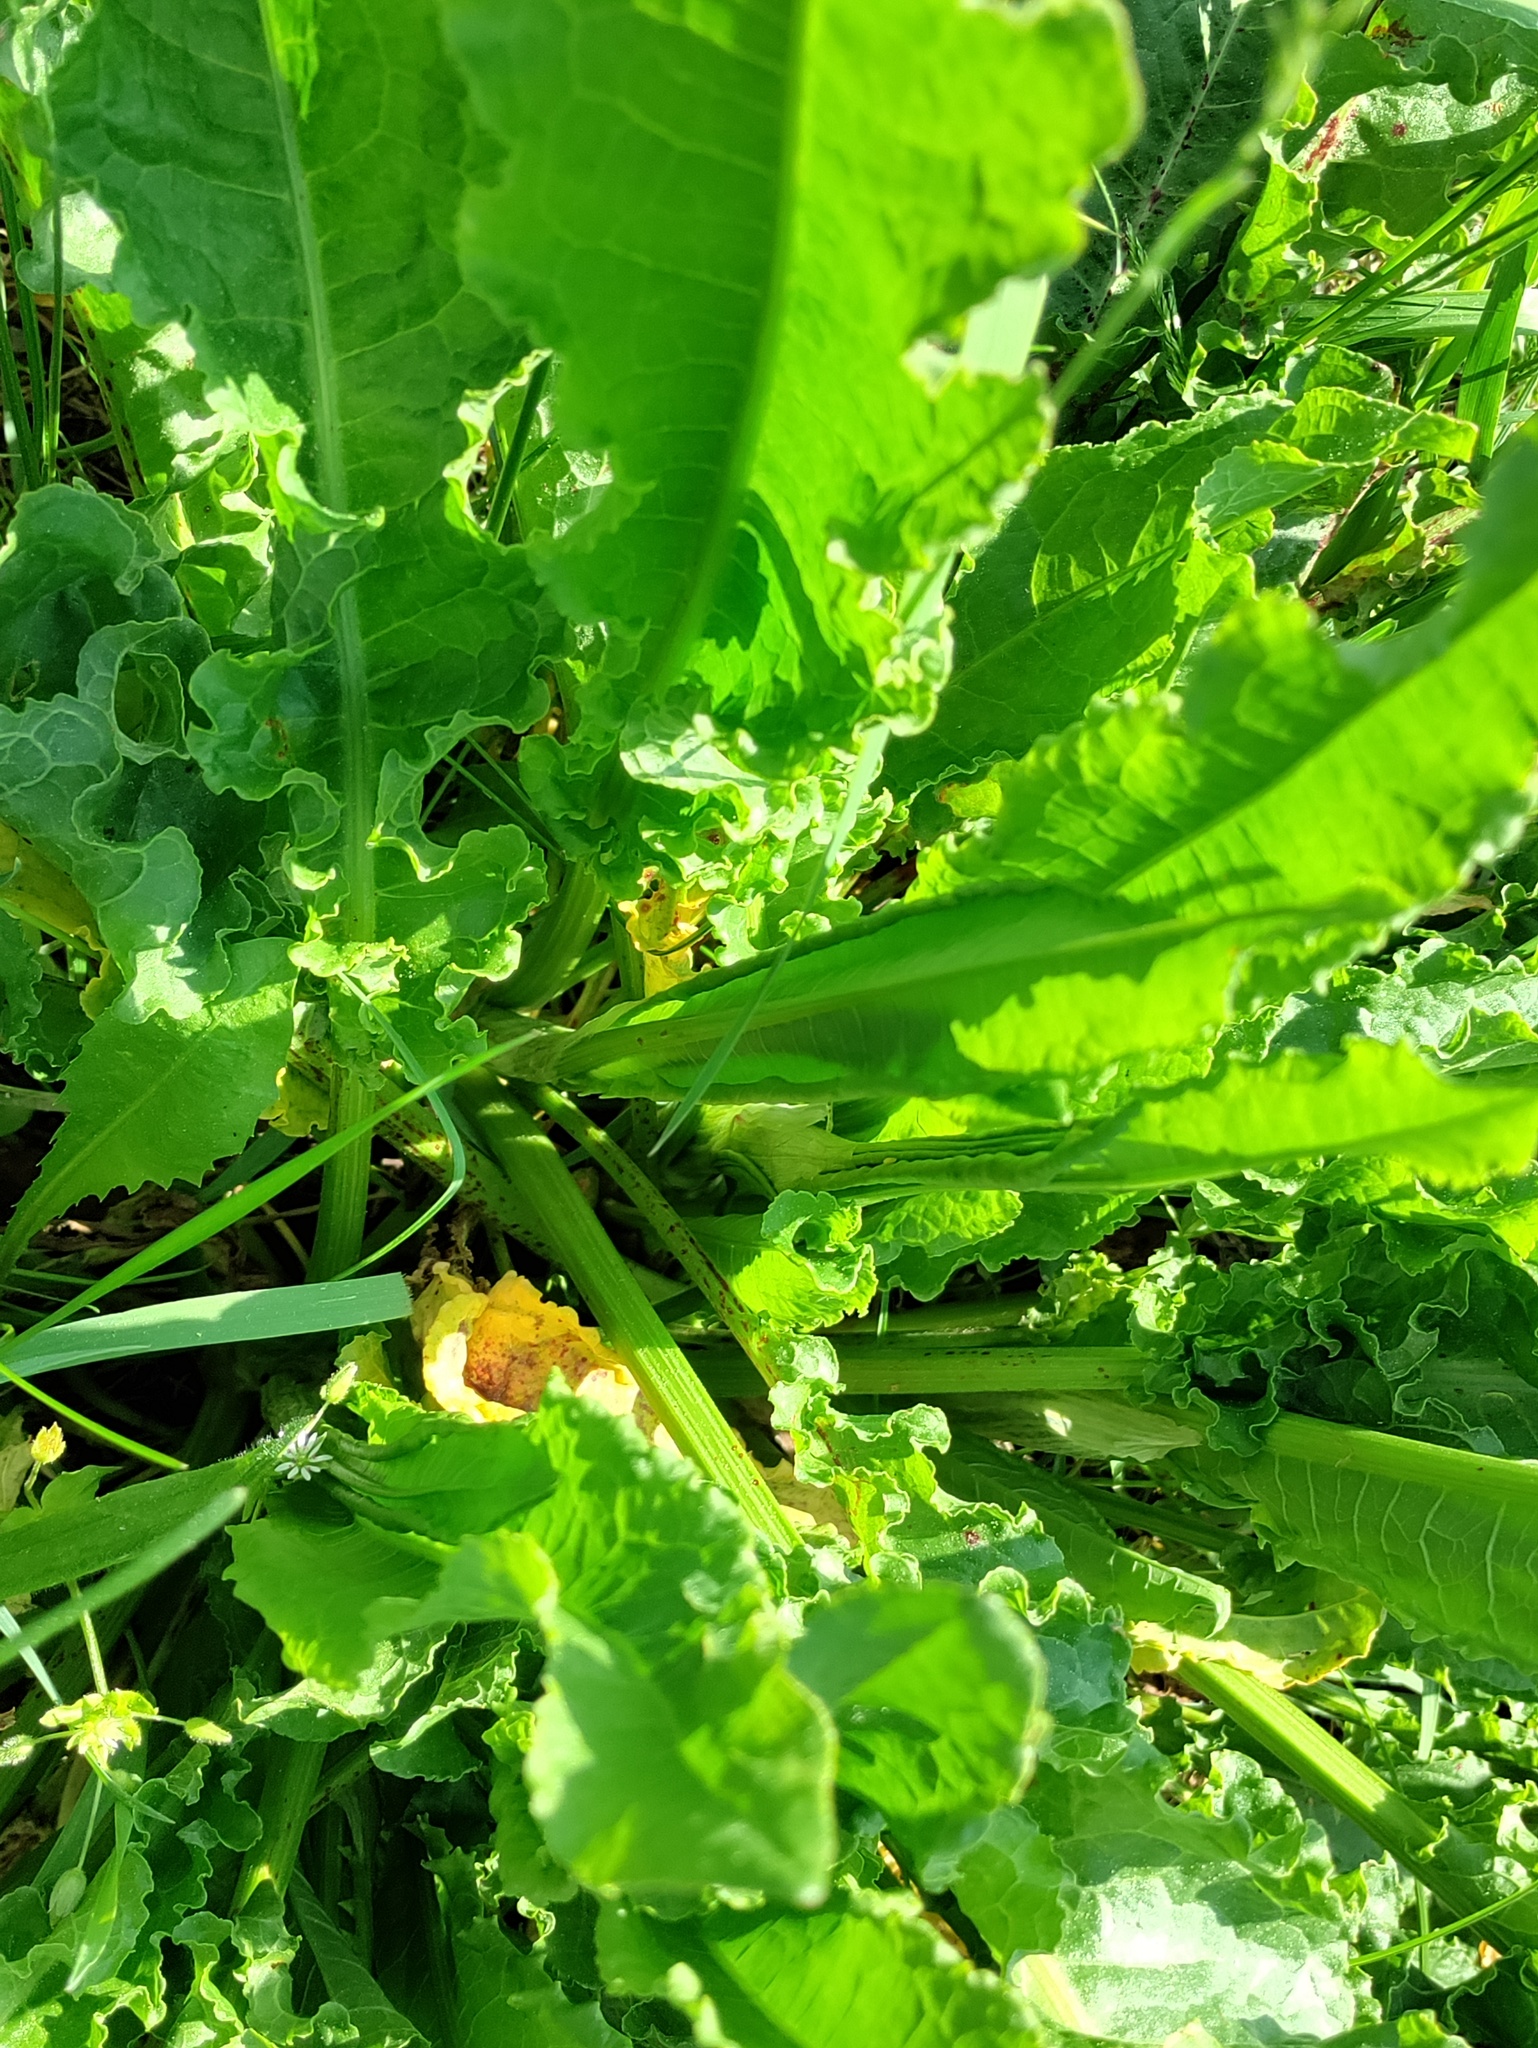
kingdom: Plantae
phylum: Tracheophyta
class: Magnoliopsida
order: Caryophyllales
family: Polygonaceae
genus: Rumex
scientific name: Rumex crispus
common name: Curled dock
